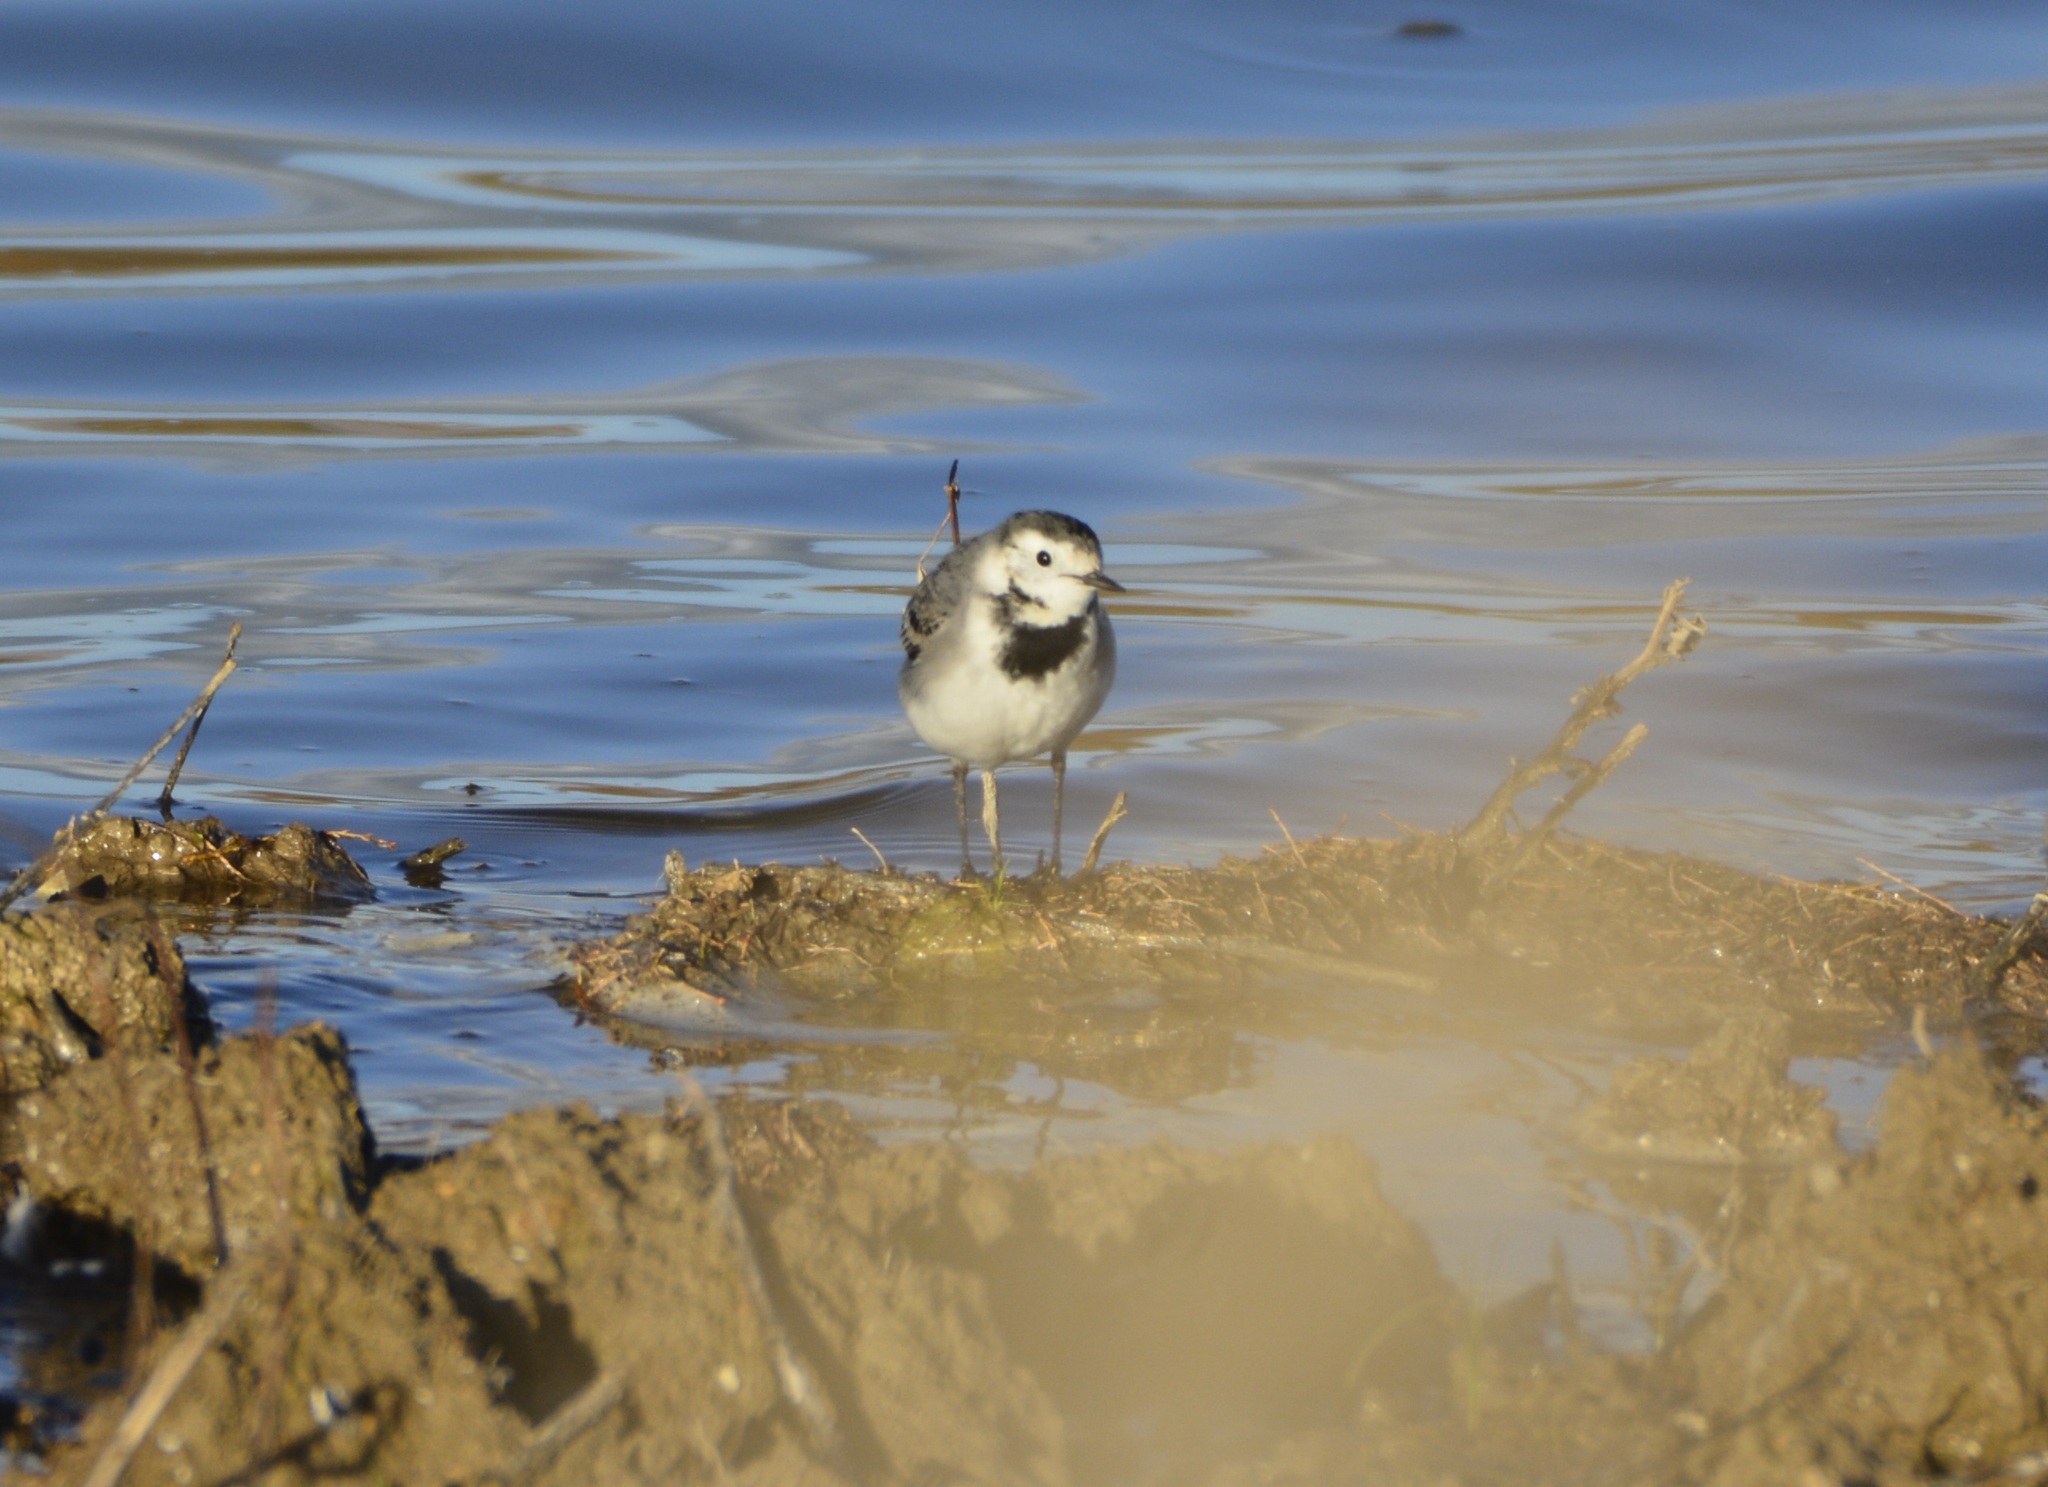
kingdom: Animalia
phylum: Chordata
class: Aves
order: Passeriformes
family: Motacillidae
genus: Motacilla
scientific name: Motacilla alba
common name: White wagtail
